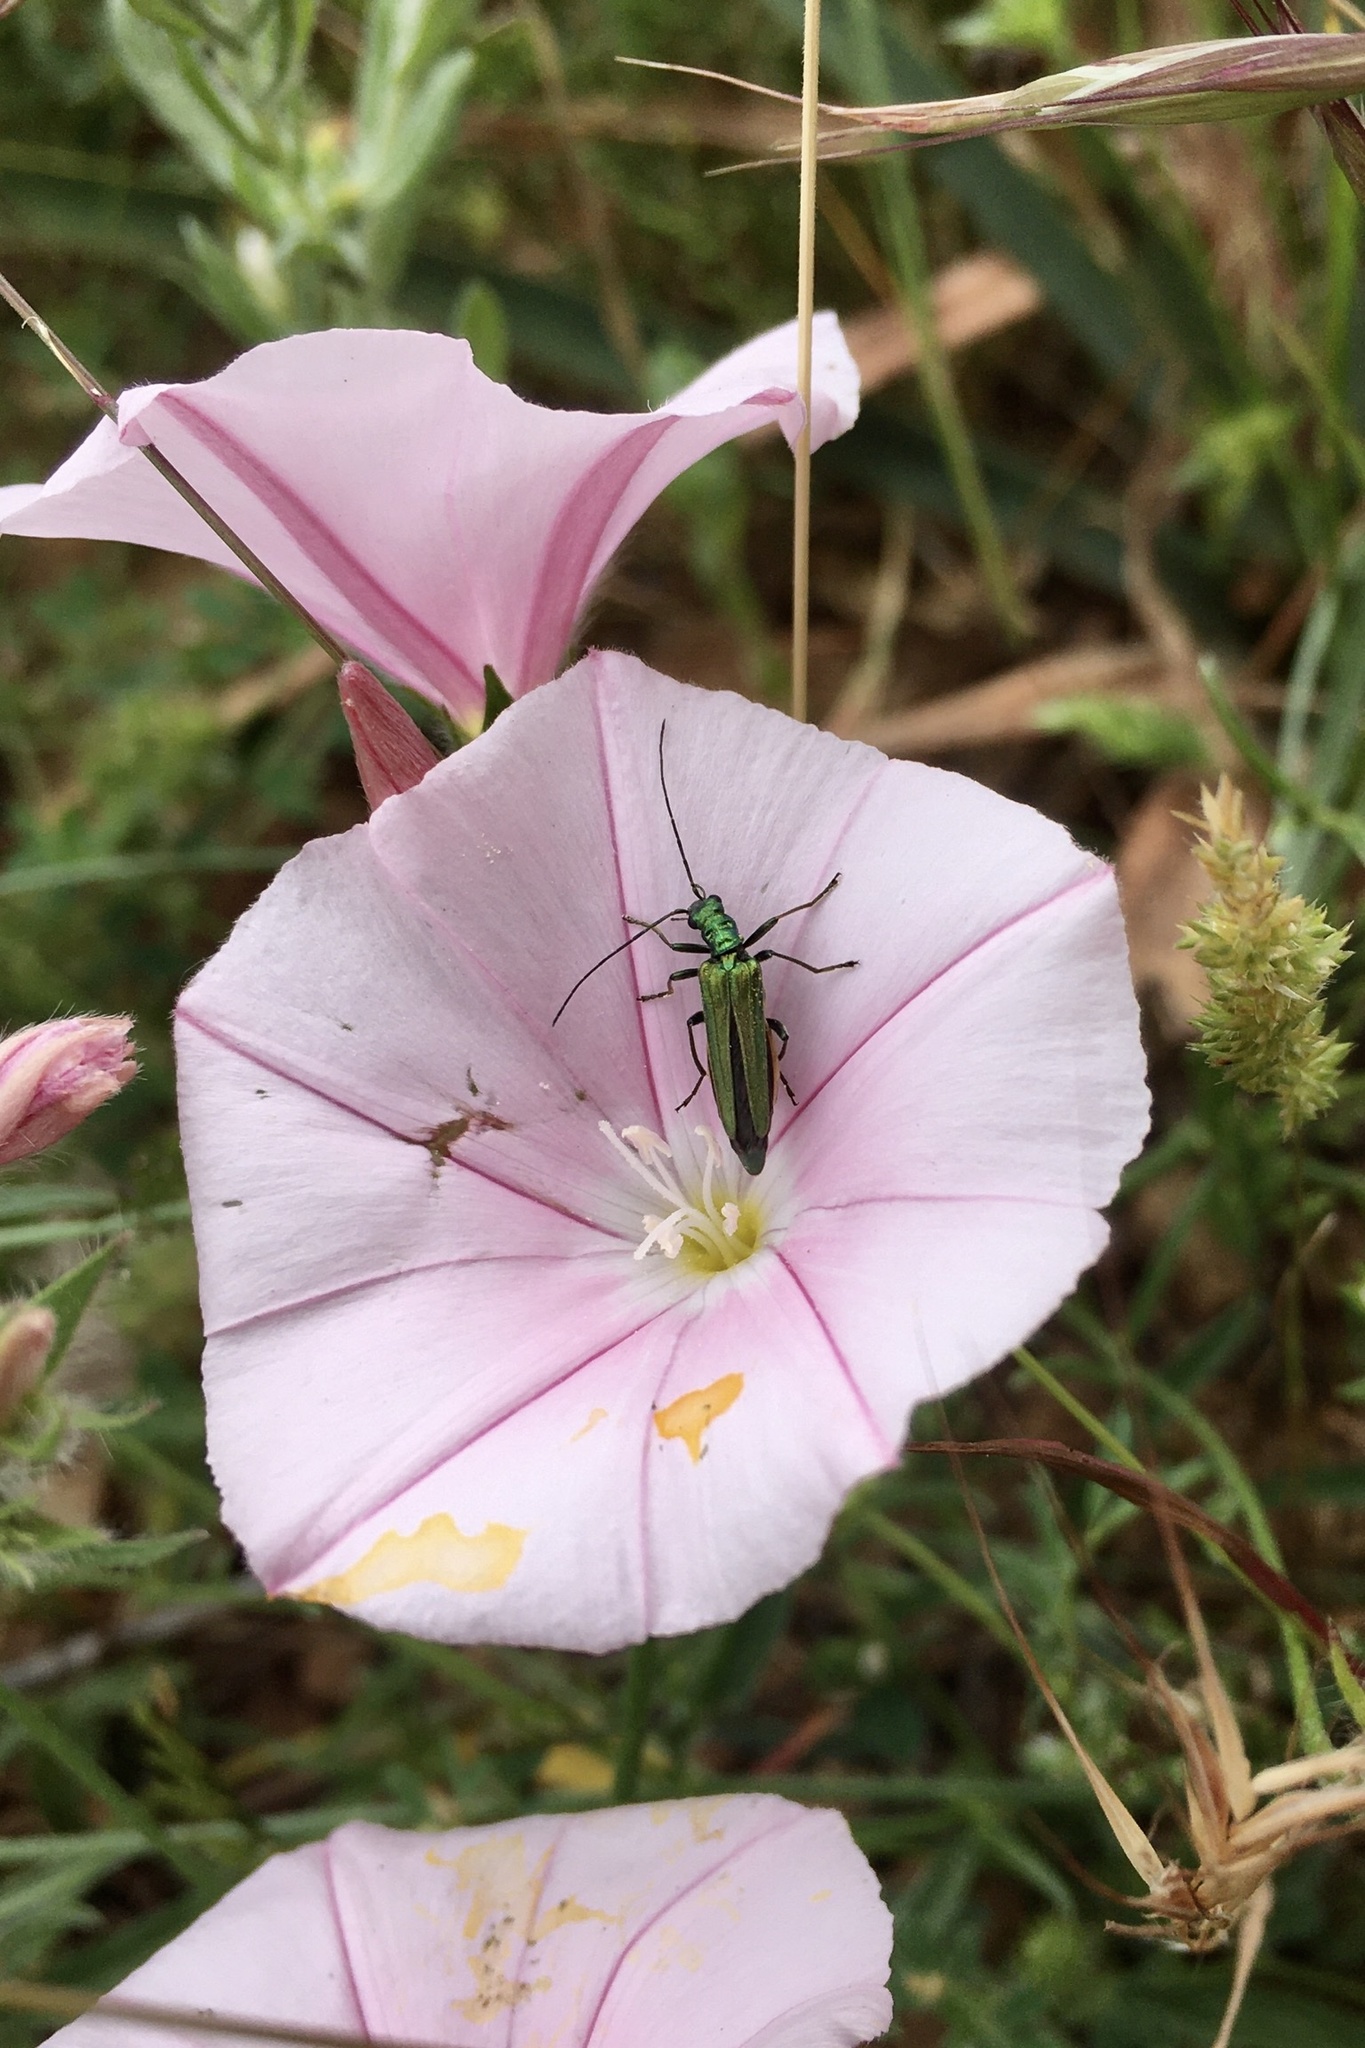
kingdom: Animalia
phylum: Arthropoda
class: Insecta
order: Coleoptera
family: Oedemeridae
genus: Oedemera
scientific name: Oedemera nobilis
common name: Swollen-thighed beetle
